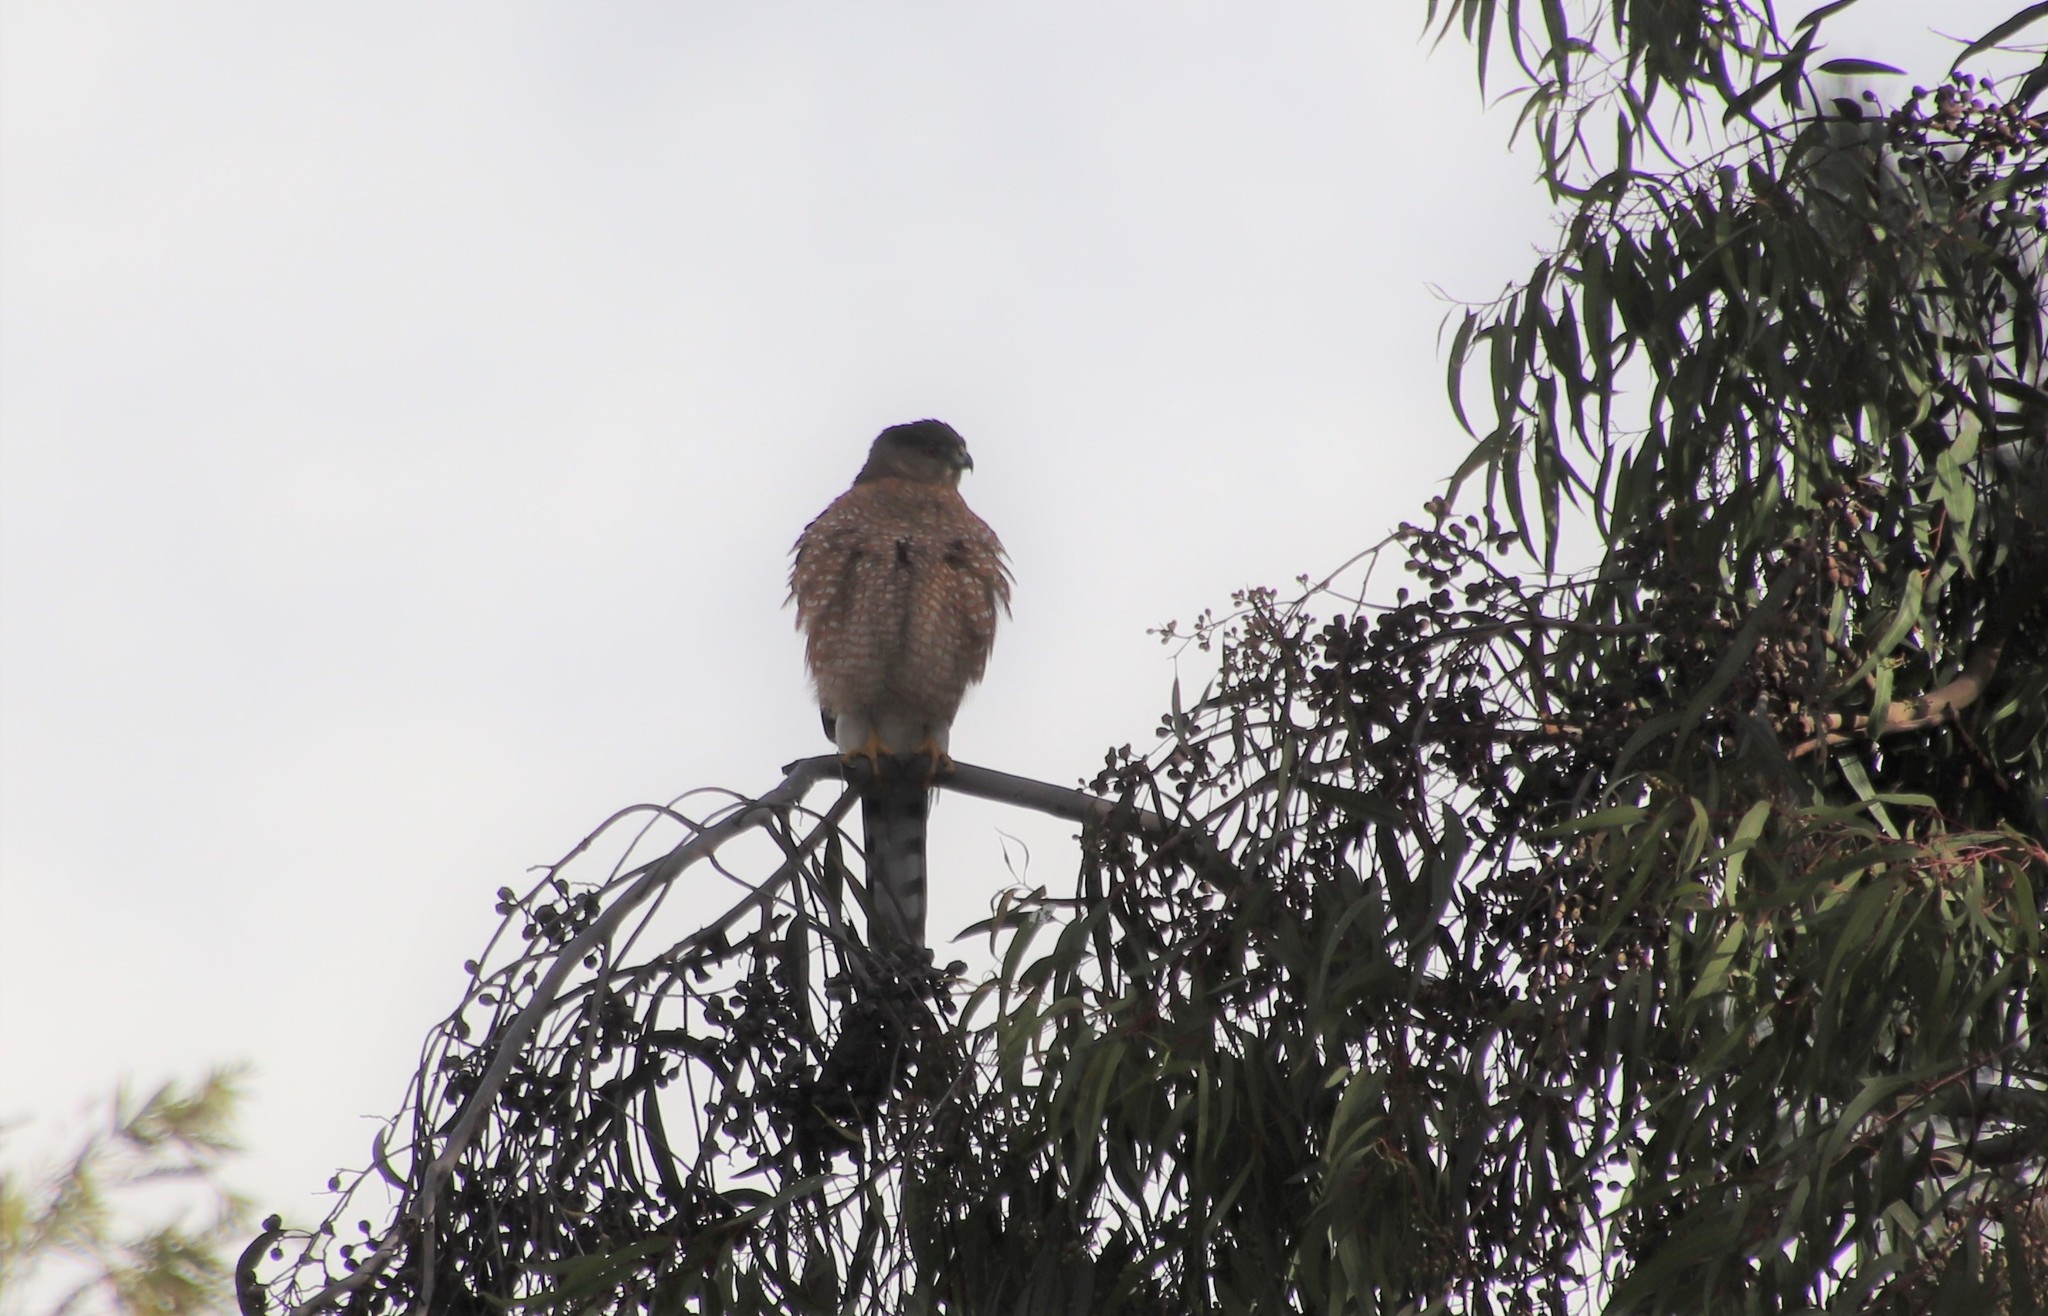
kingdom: Animalia
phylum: Chordata
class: Aves
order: Accipitriformes
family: Accipitridae
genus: Accipiter
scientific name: Accipiter cooperii
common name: Cooper's hawk
